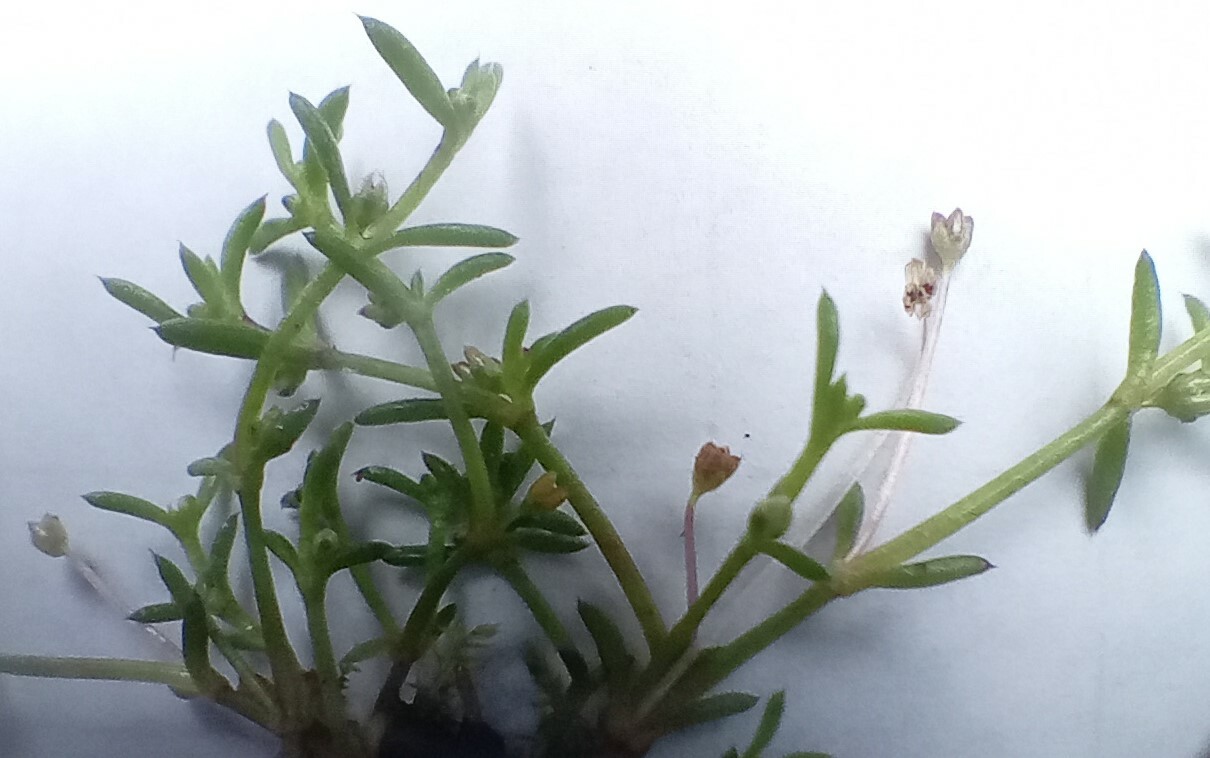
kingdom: Plantae
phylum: Tracheophyta
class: Magnoliopsida
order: Saxifragales
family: Crassulaceae
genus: Crassula
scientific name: Crassula peduncularis
